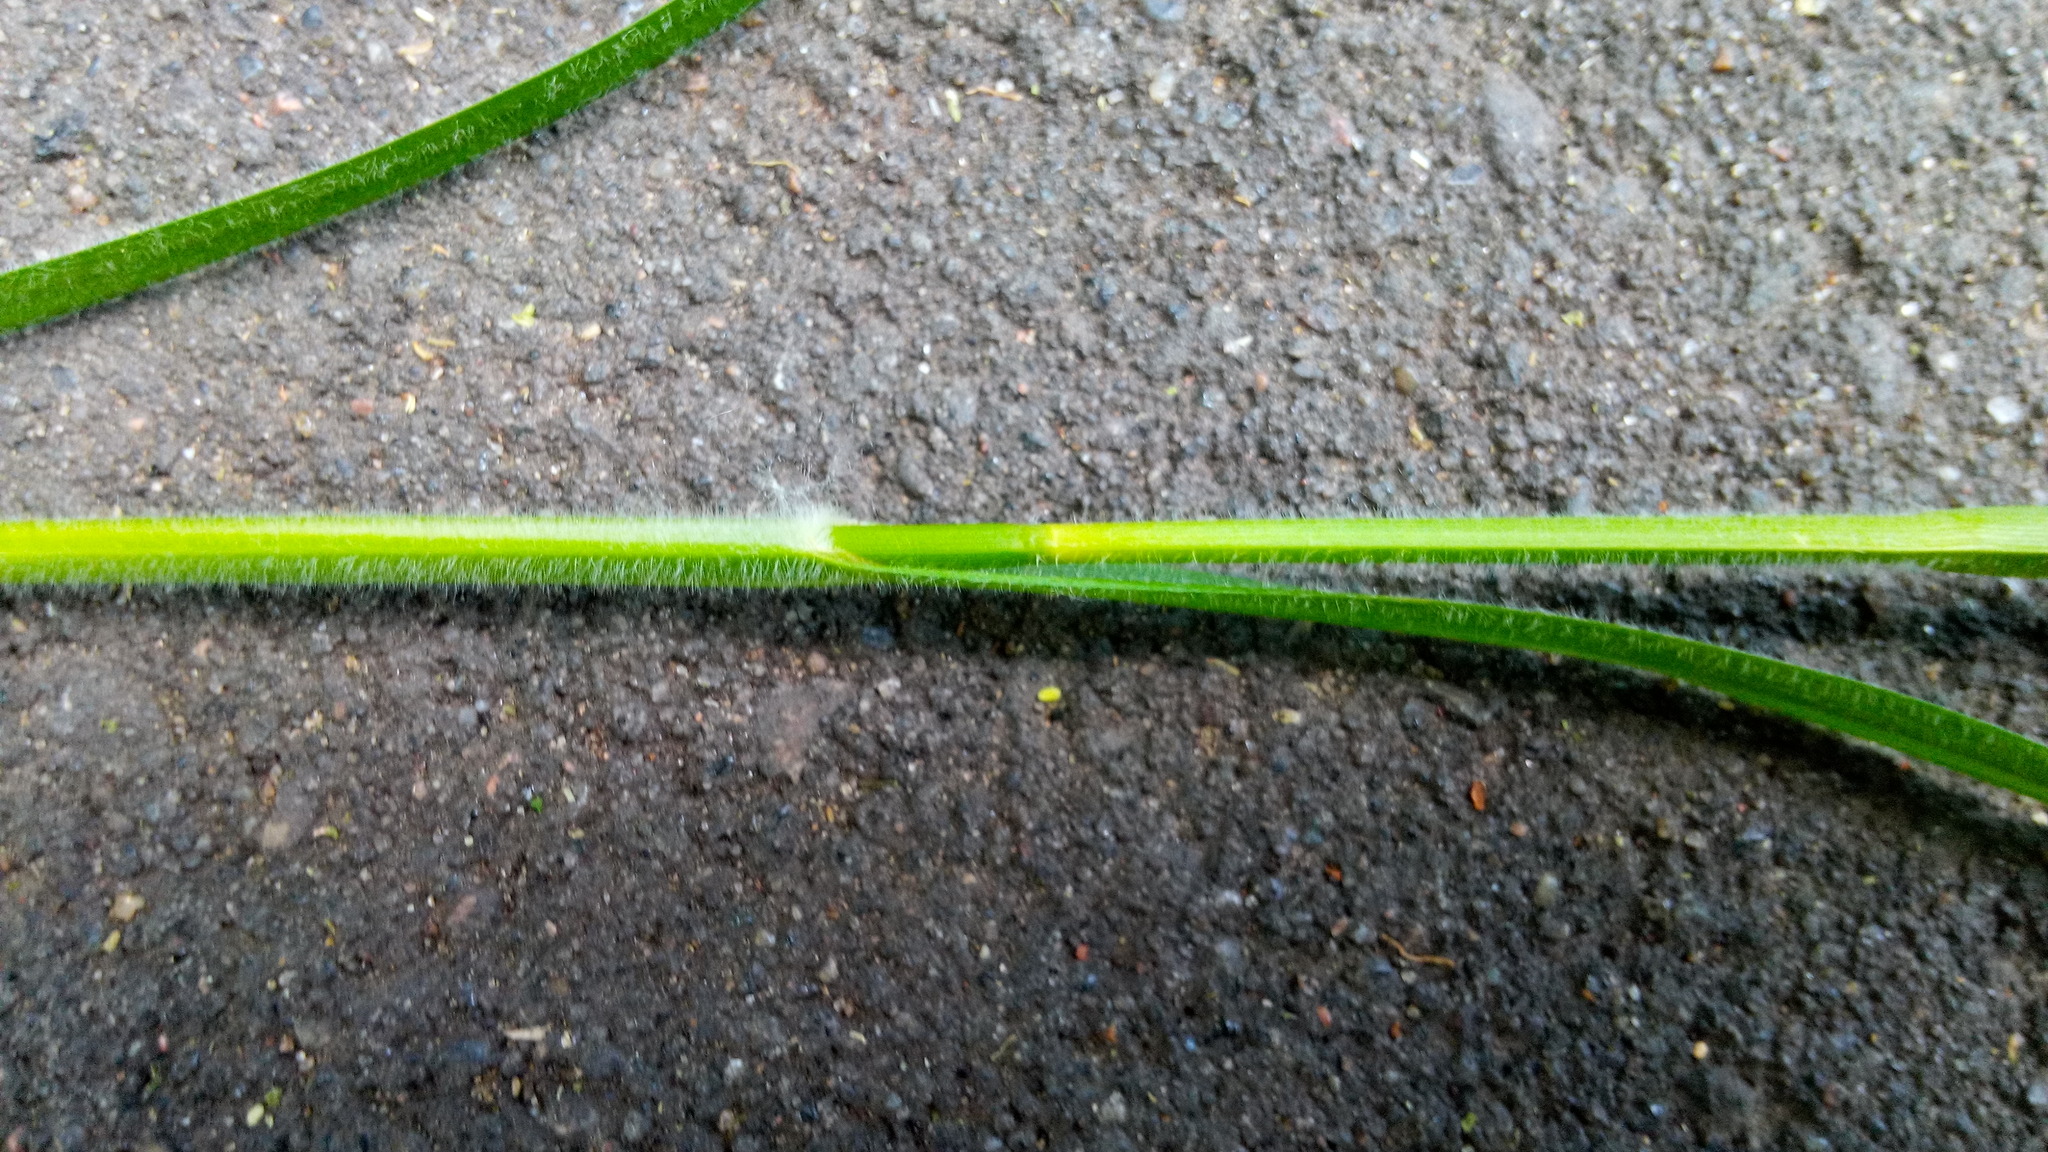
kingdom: Plantae
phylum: Tracheophyta
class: Liliopsida
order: Poales
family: Cyperaceae
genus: Carex
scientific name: Carex hirta
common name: Hairy sedge
